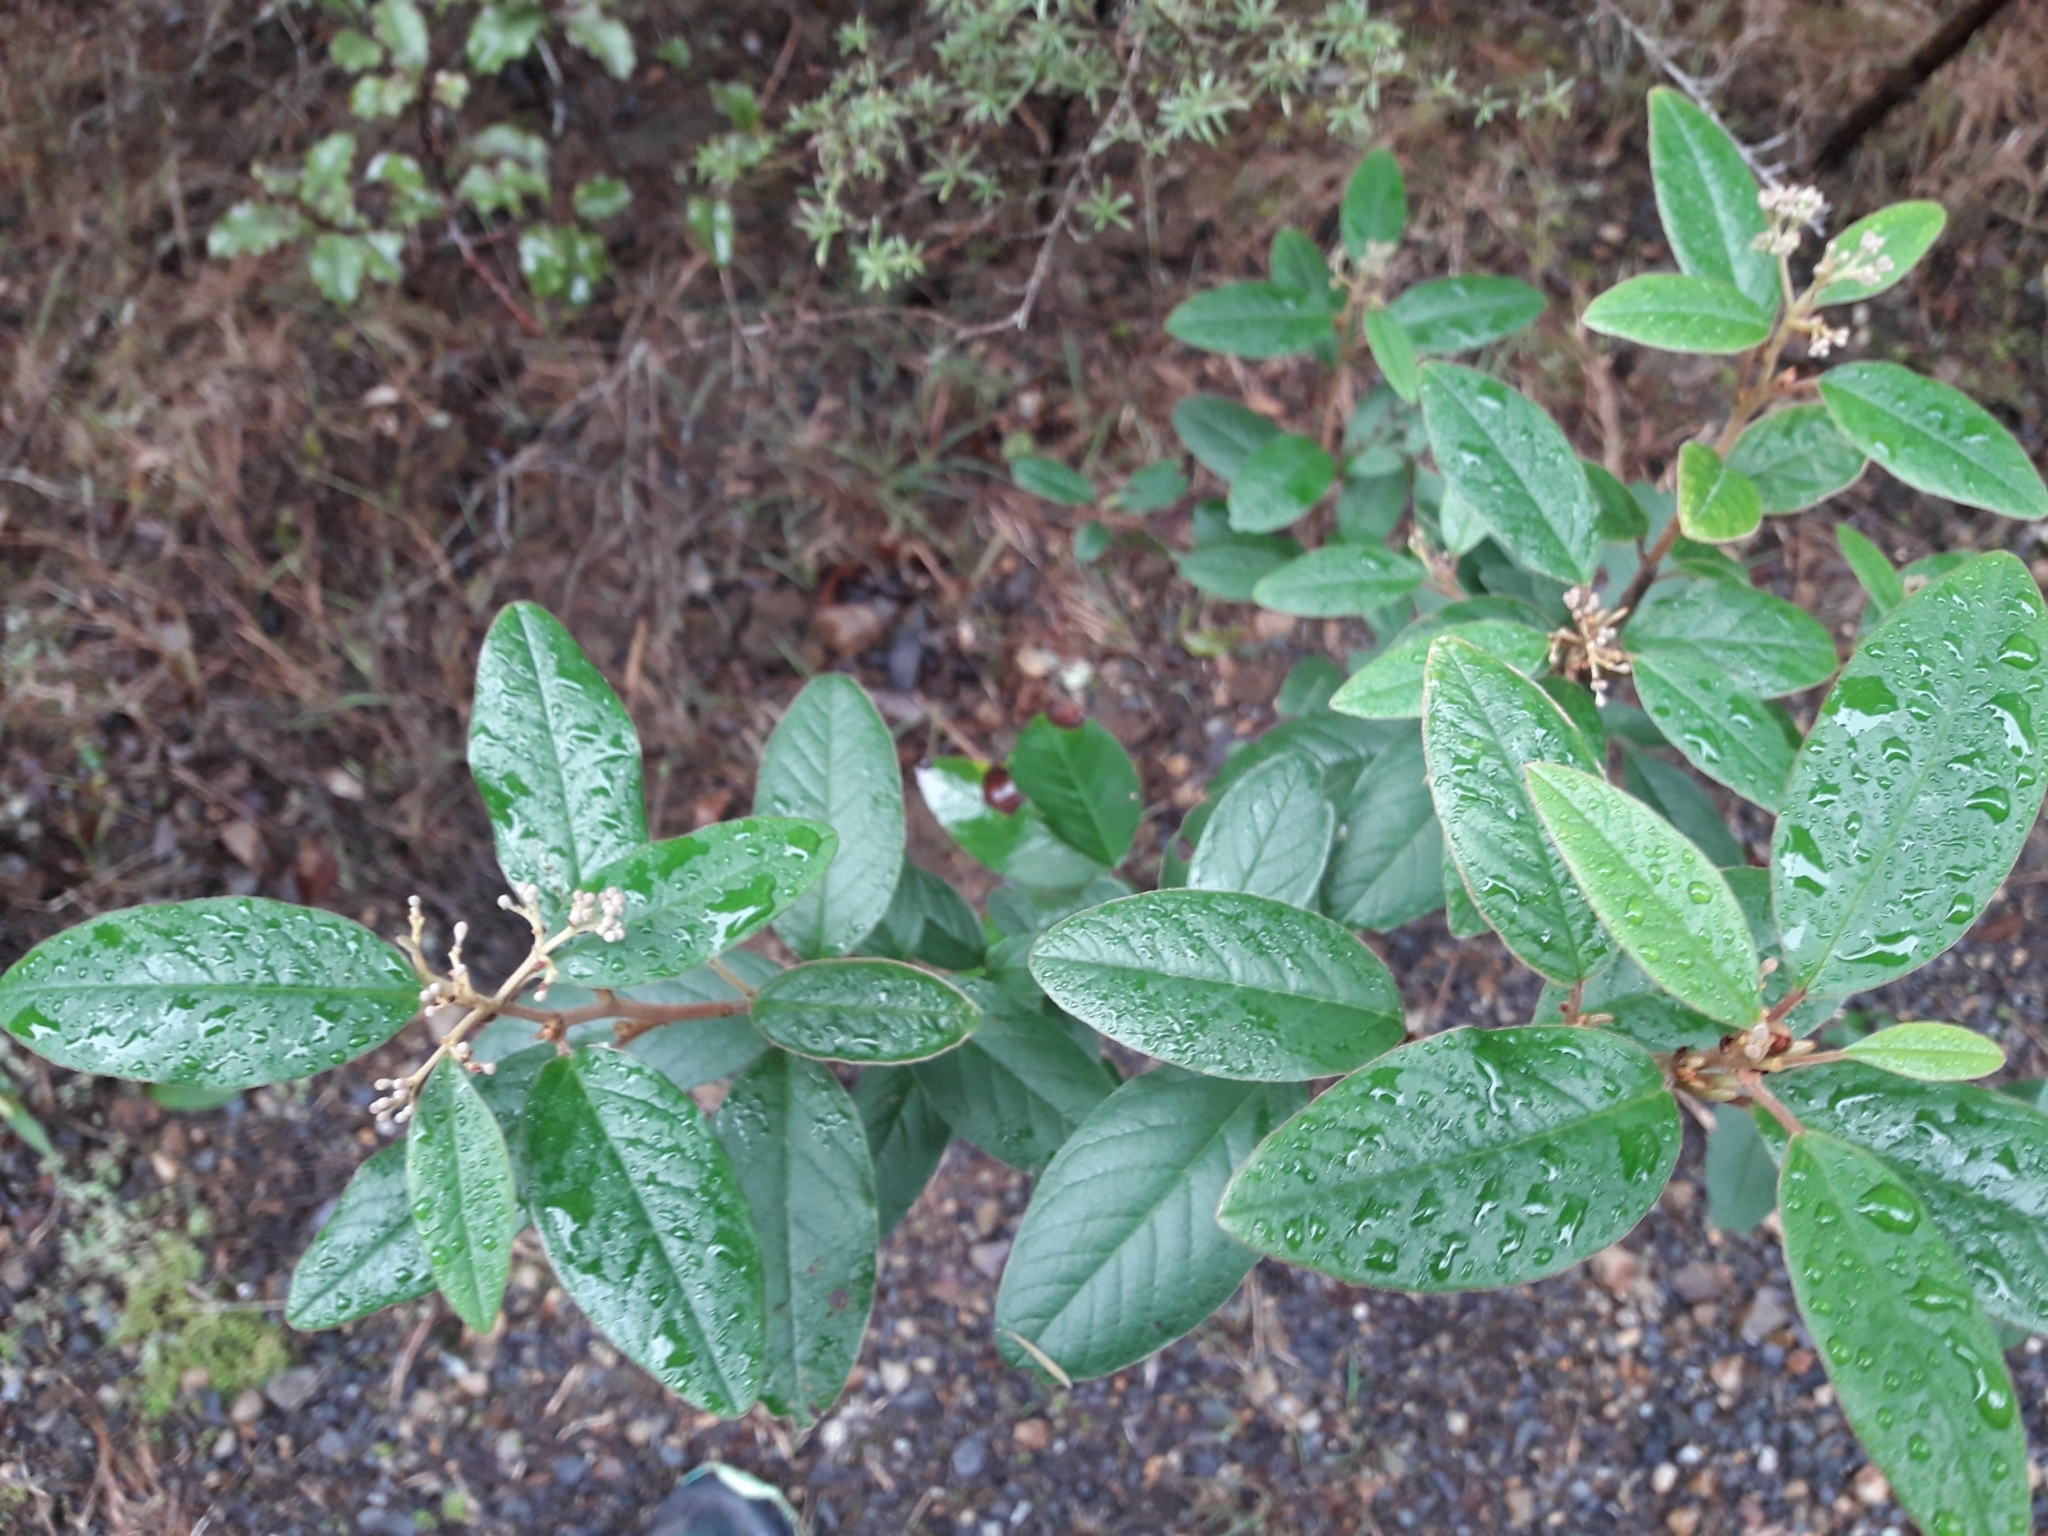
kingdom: Plantae
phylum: Tracheophyta
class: Magnoliopsida
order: Rosales
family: Rhamnaceae
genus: Pomaderris
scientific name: Pomaderris kumeraho
